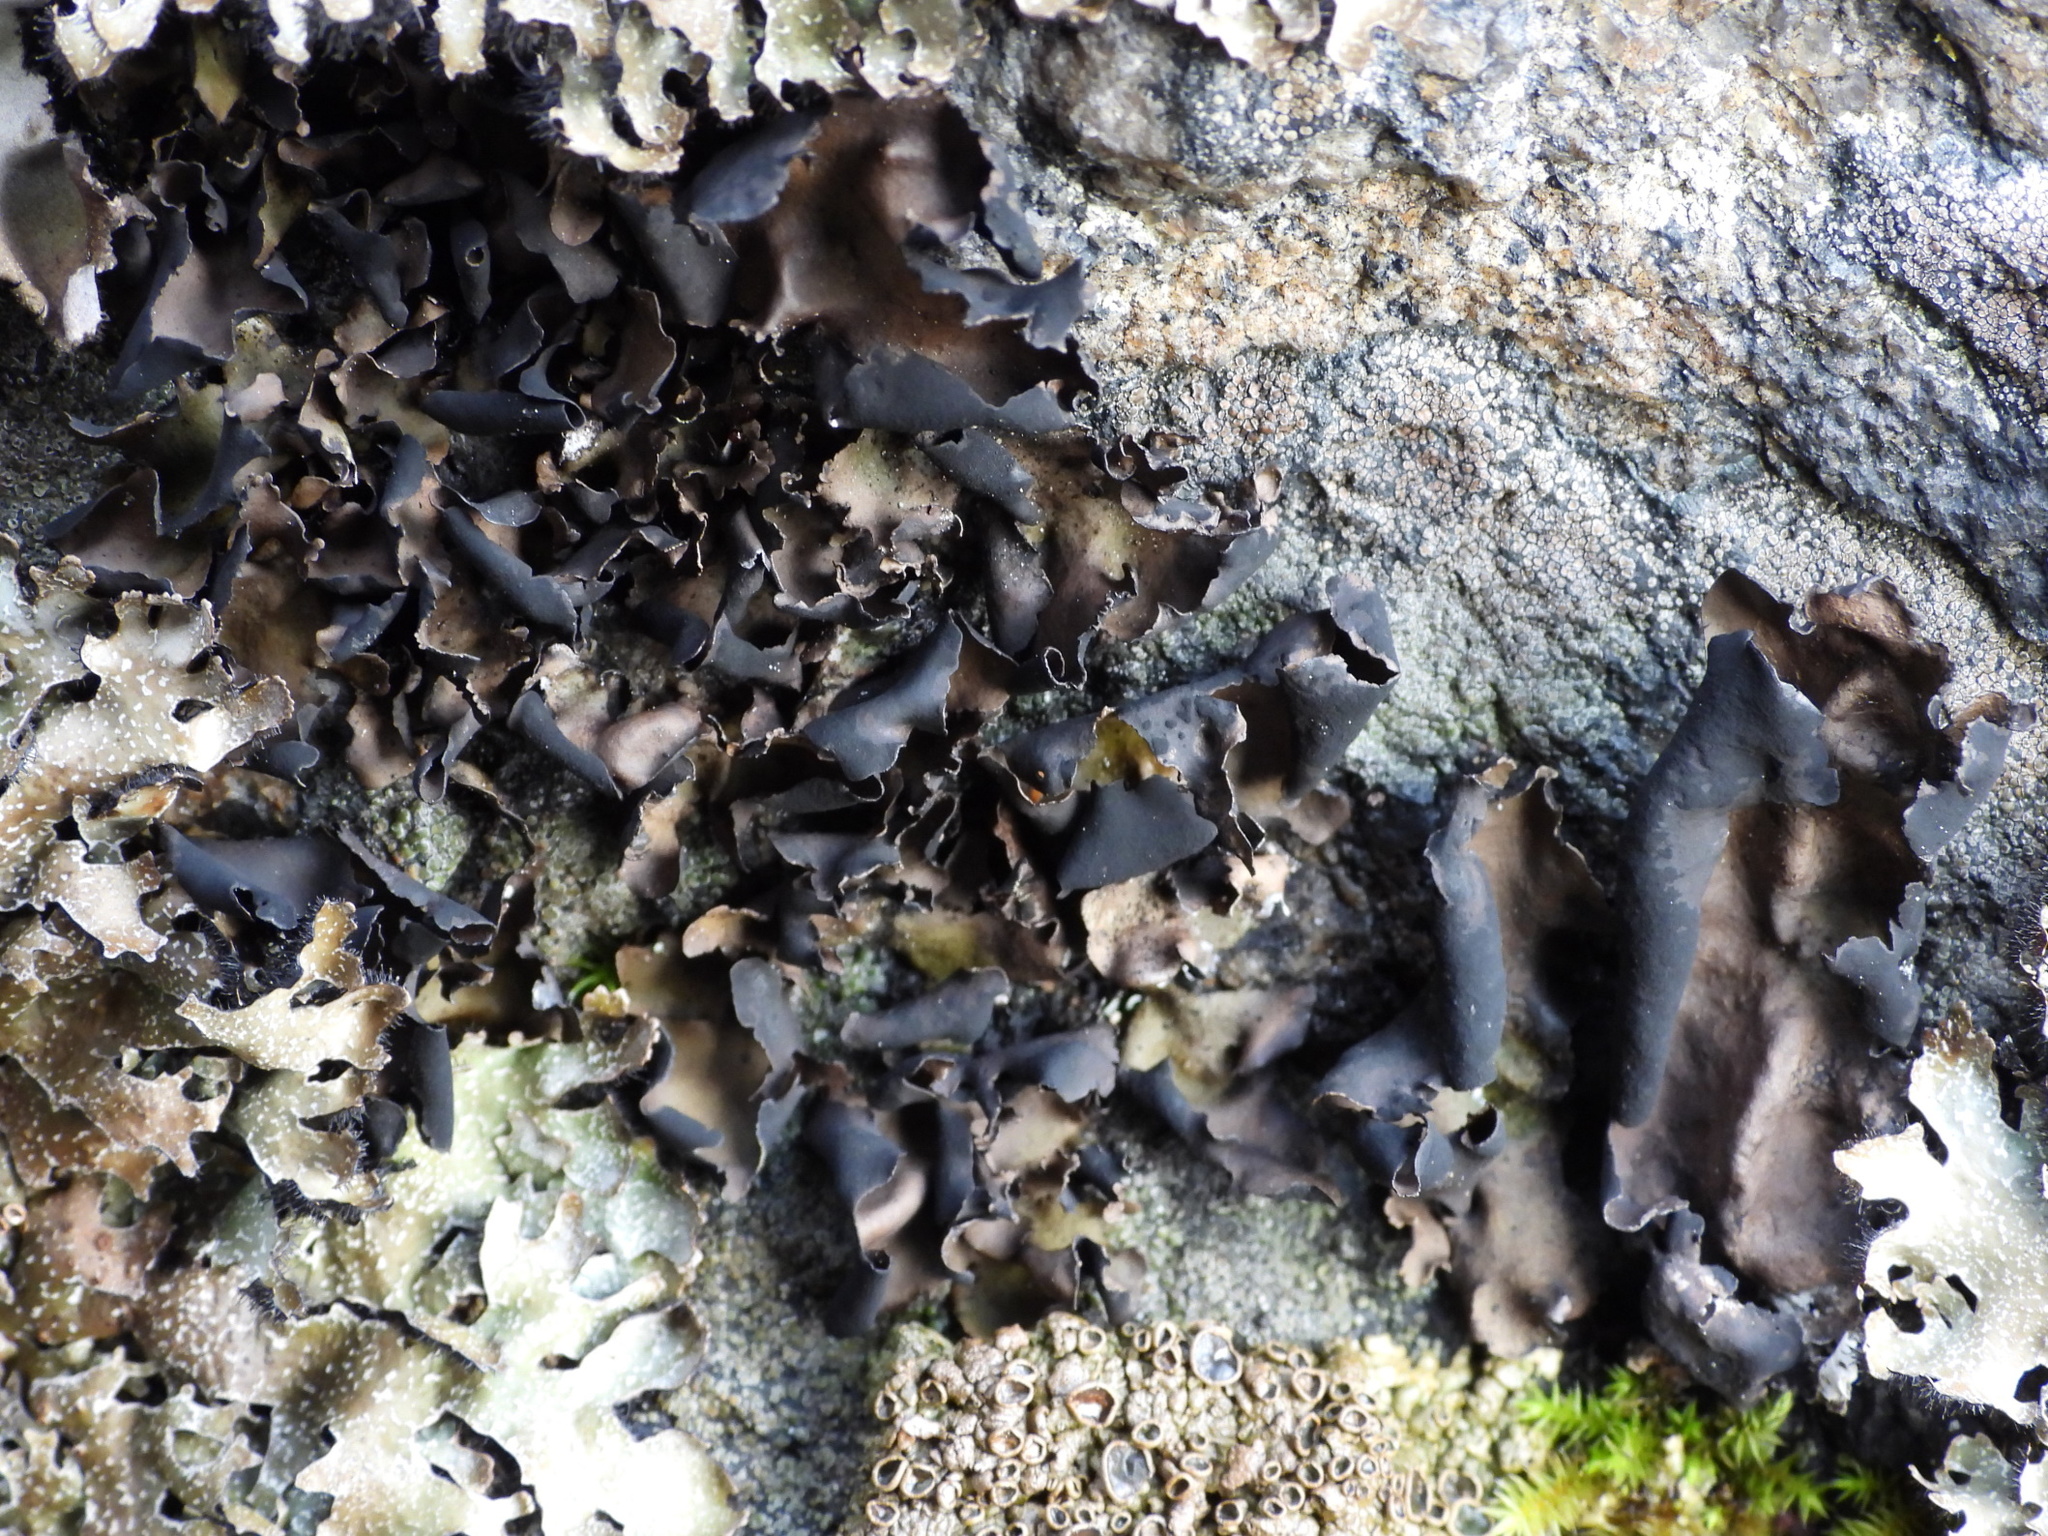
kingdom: Fungi
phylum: Ascomycota
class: Lecanoromycetes
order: Umbilicariales
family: Umbilicariaceae
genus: Umbilicaria
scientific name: Umbilicaria polyphylla
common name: Petalled rocktripe lichen
